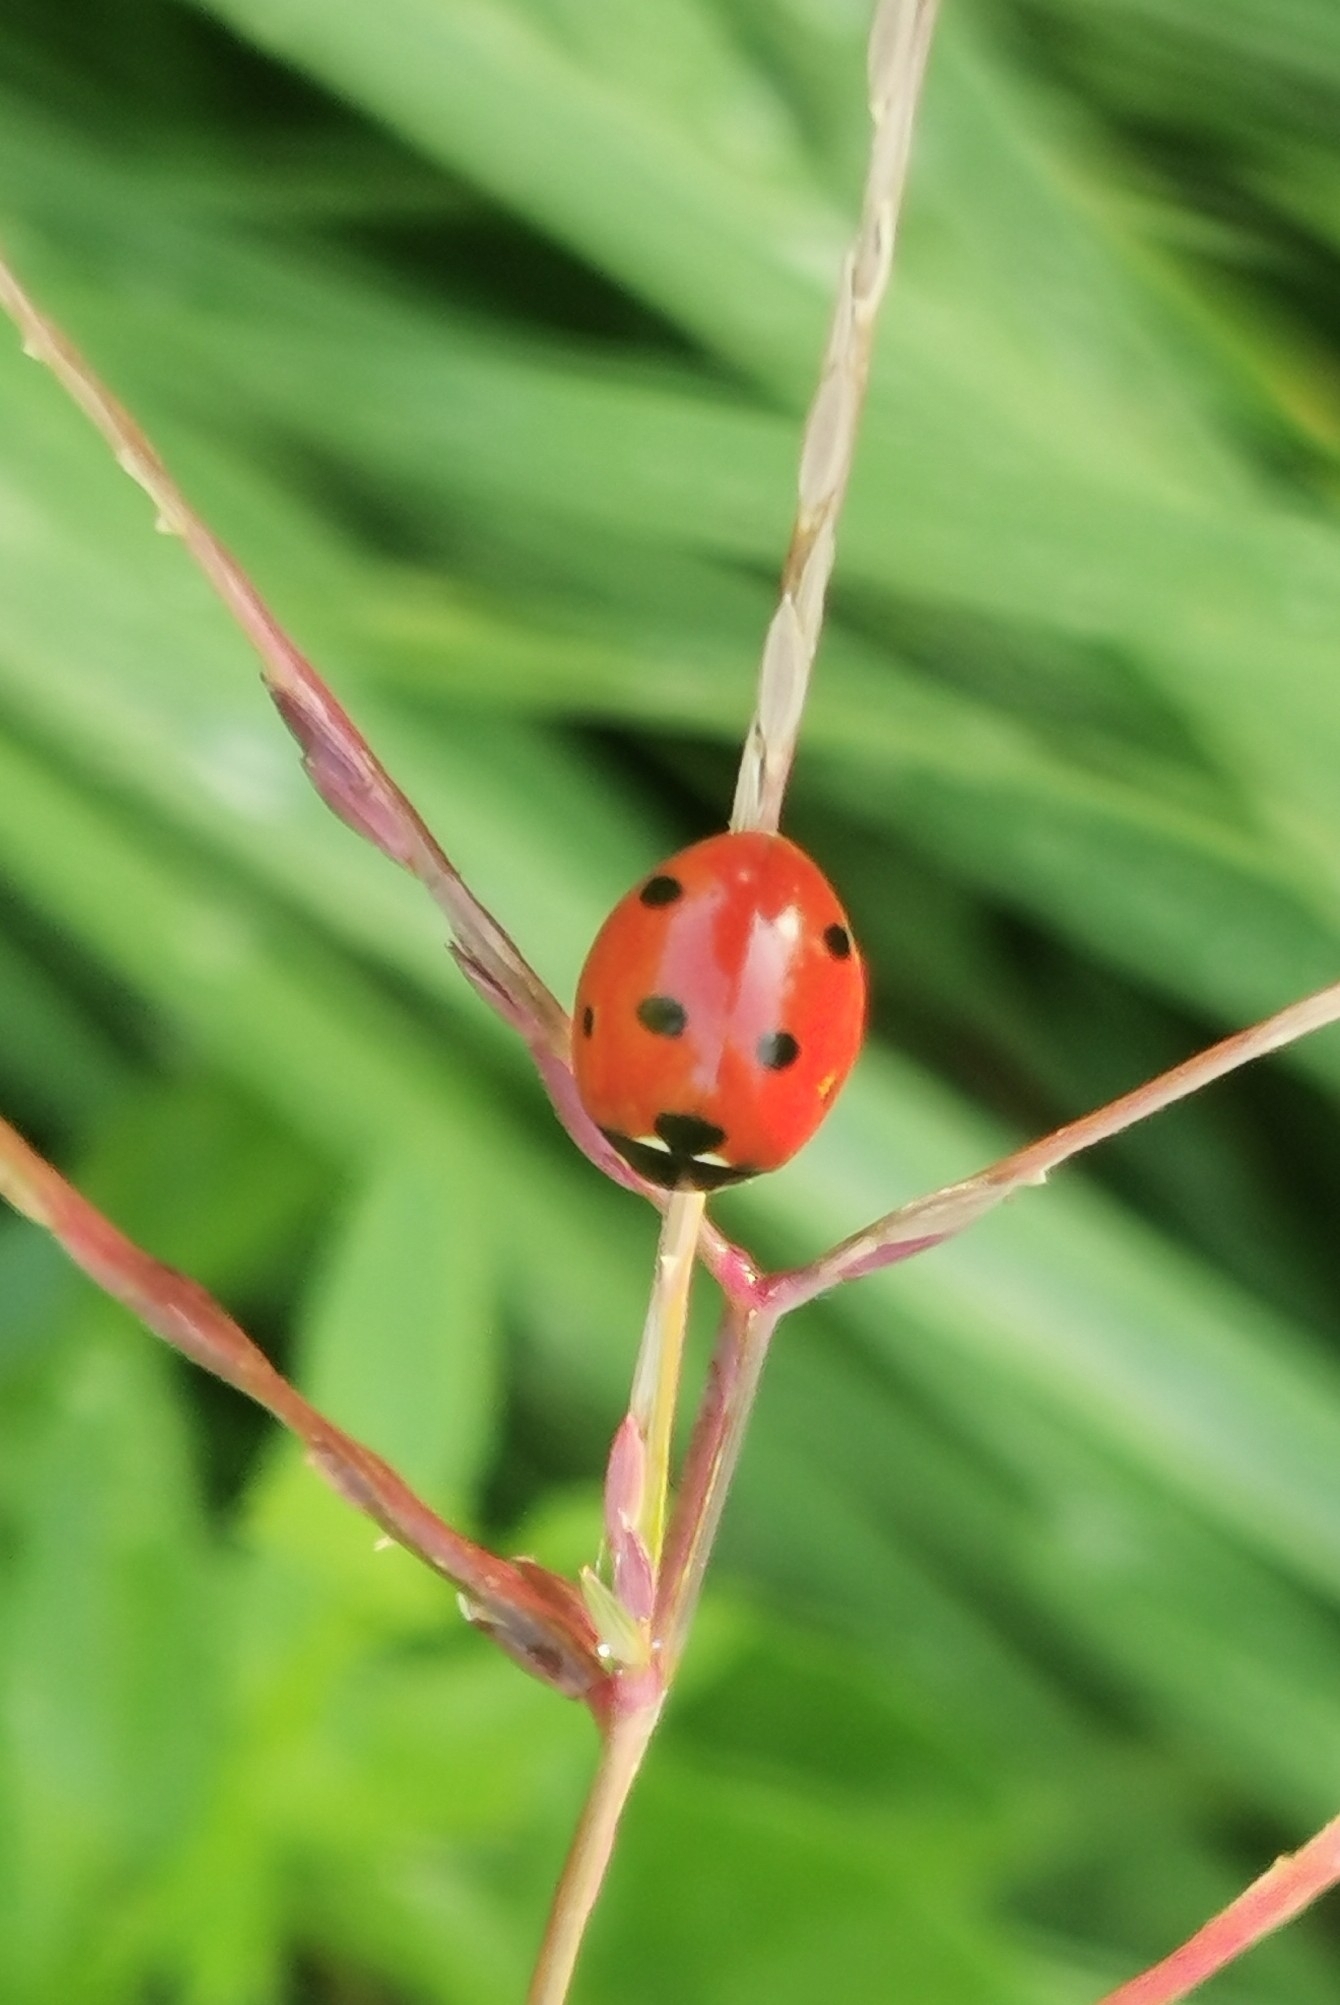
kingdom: Animalia
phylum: Arthropoda
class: Insecta
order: Coleoptera
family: Coccinellidae
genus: Coccinella
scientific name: Coccinella septempunctata
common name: Sevenspotted lady beetle
